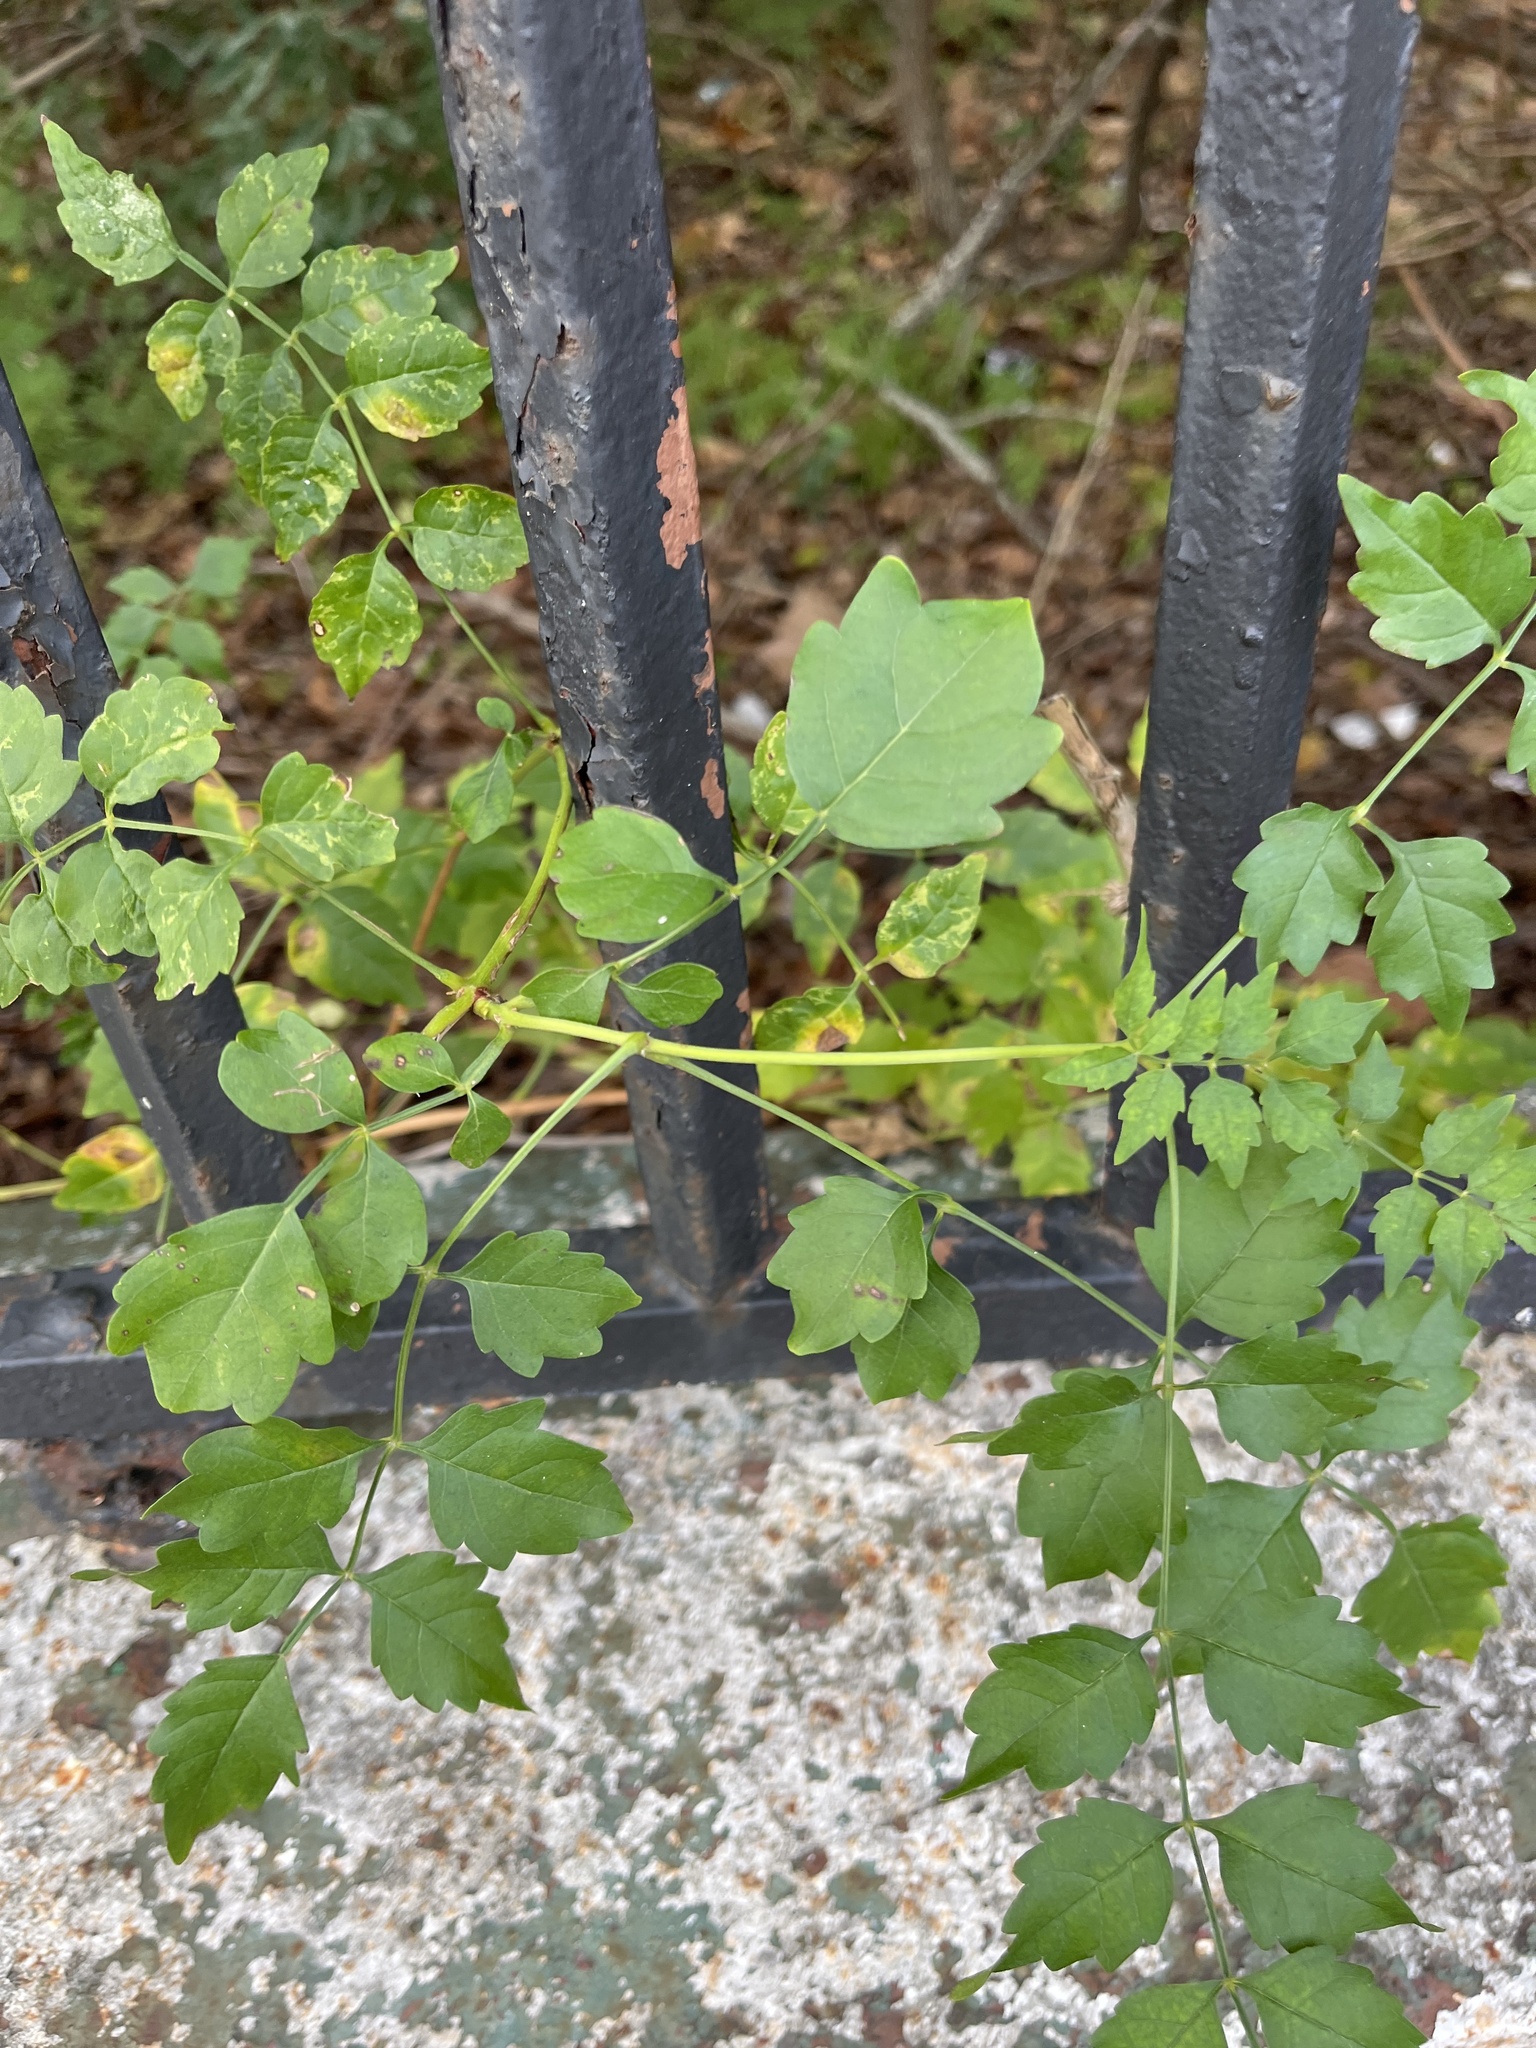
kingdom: Plantae
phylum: Tracheophyta
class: Magnoliopsida
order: Lamiales
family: Bignoniaceae
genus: Campsis
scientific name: Campsis radicans
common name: Trumpet-creeper
